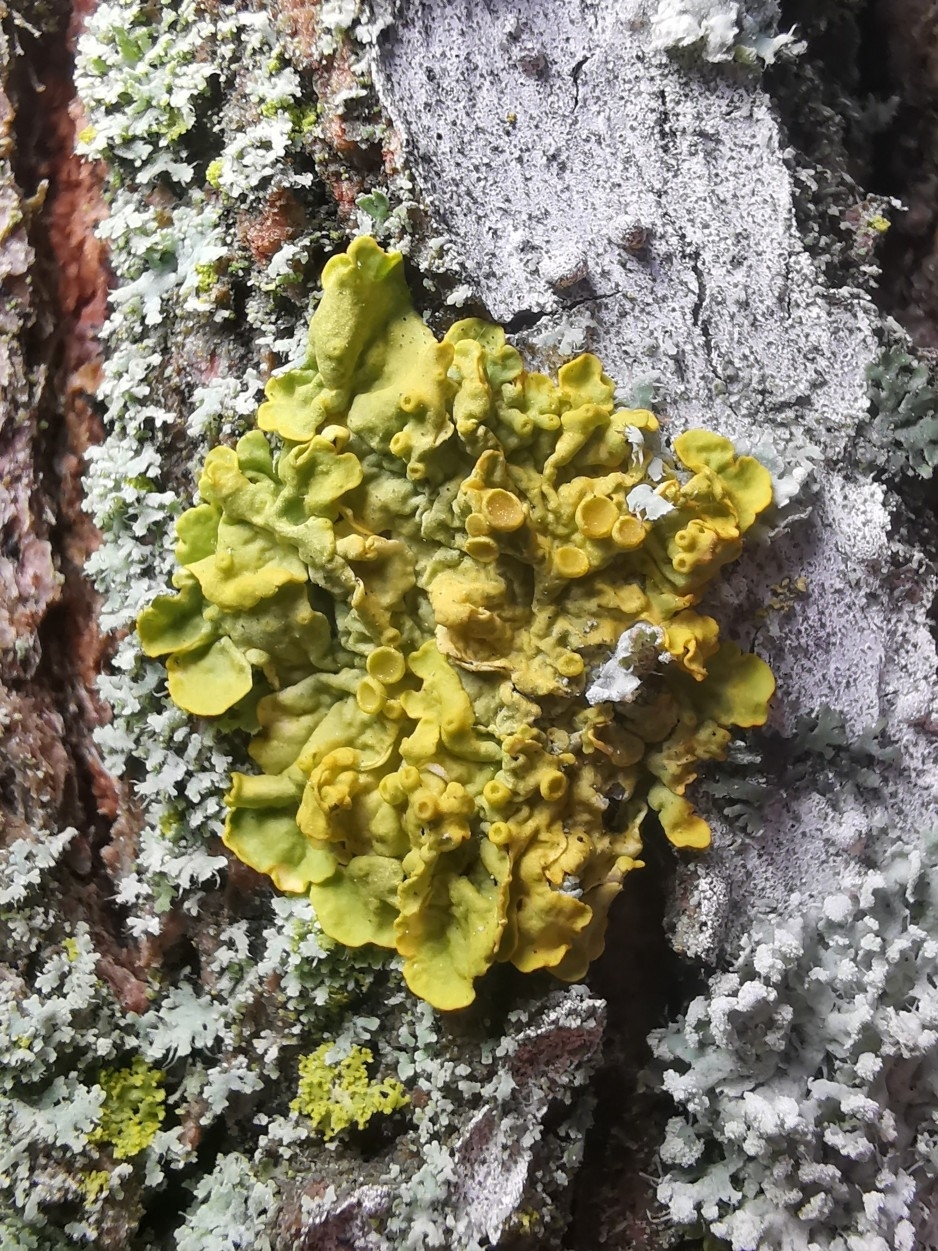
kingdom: Fungi
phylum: Ascomycota
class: Lecanoromycetes
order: Teloschistales
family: Teloschistaceae
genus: Xanthoria
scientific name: Xanthoria parietina
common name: Common orange lichen
